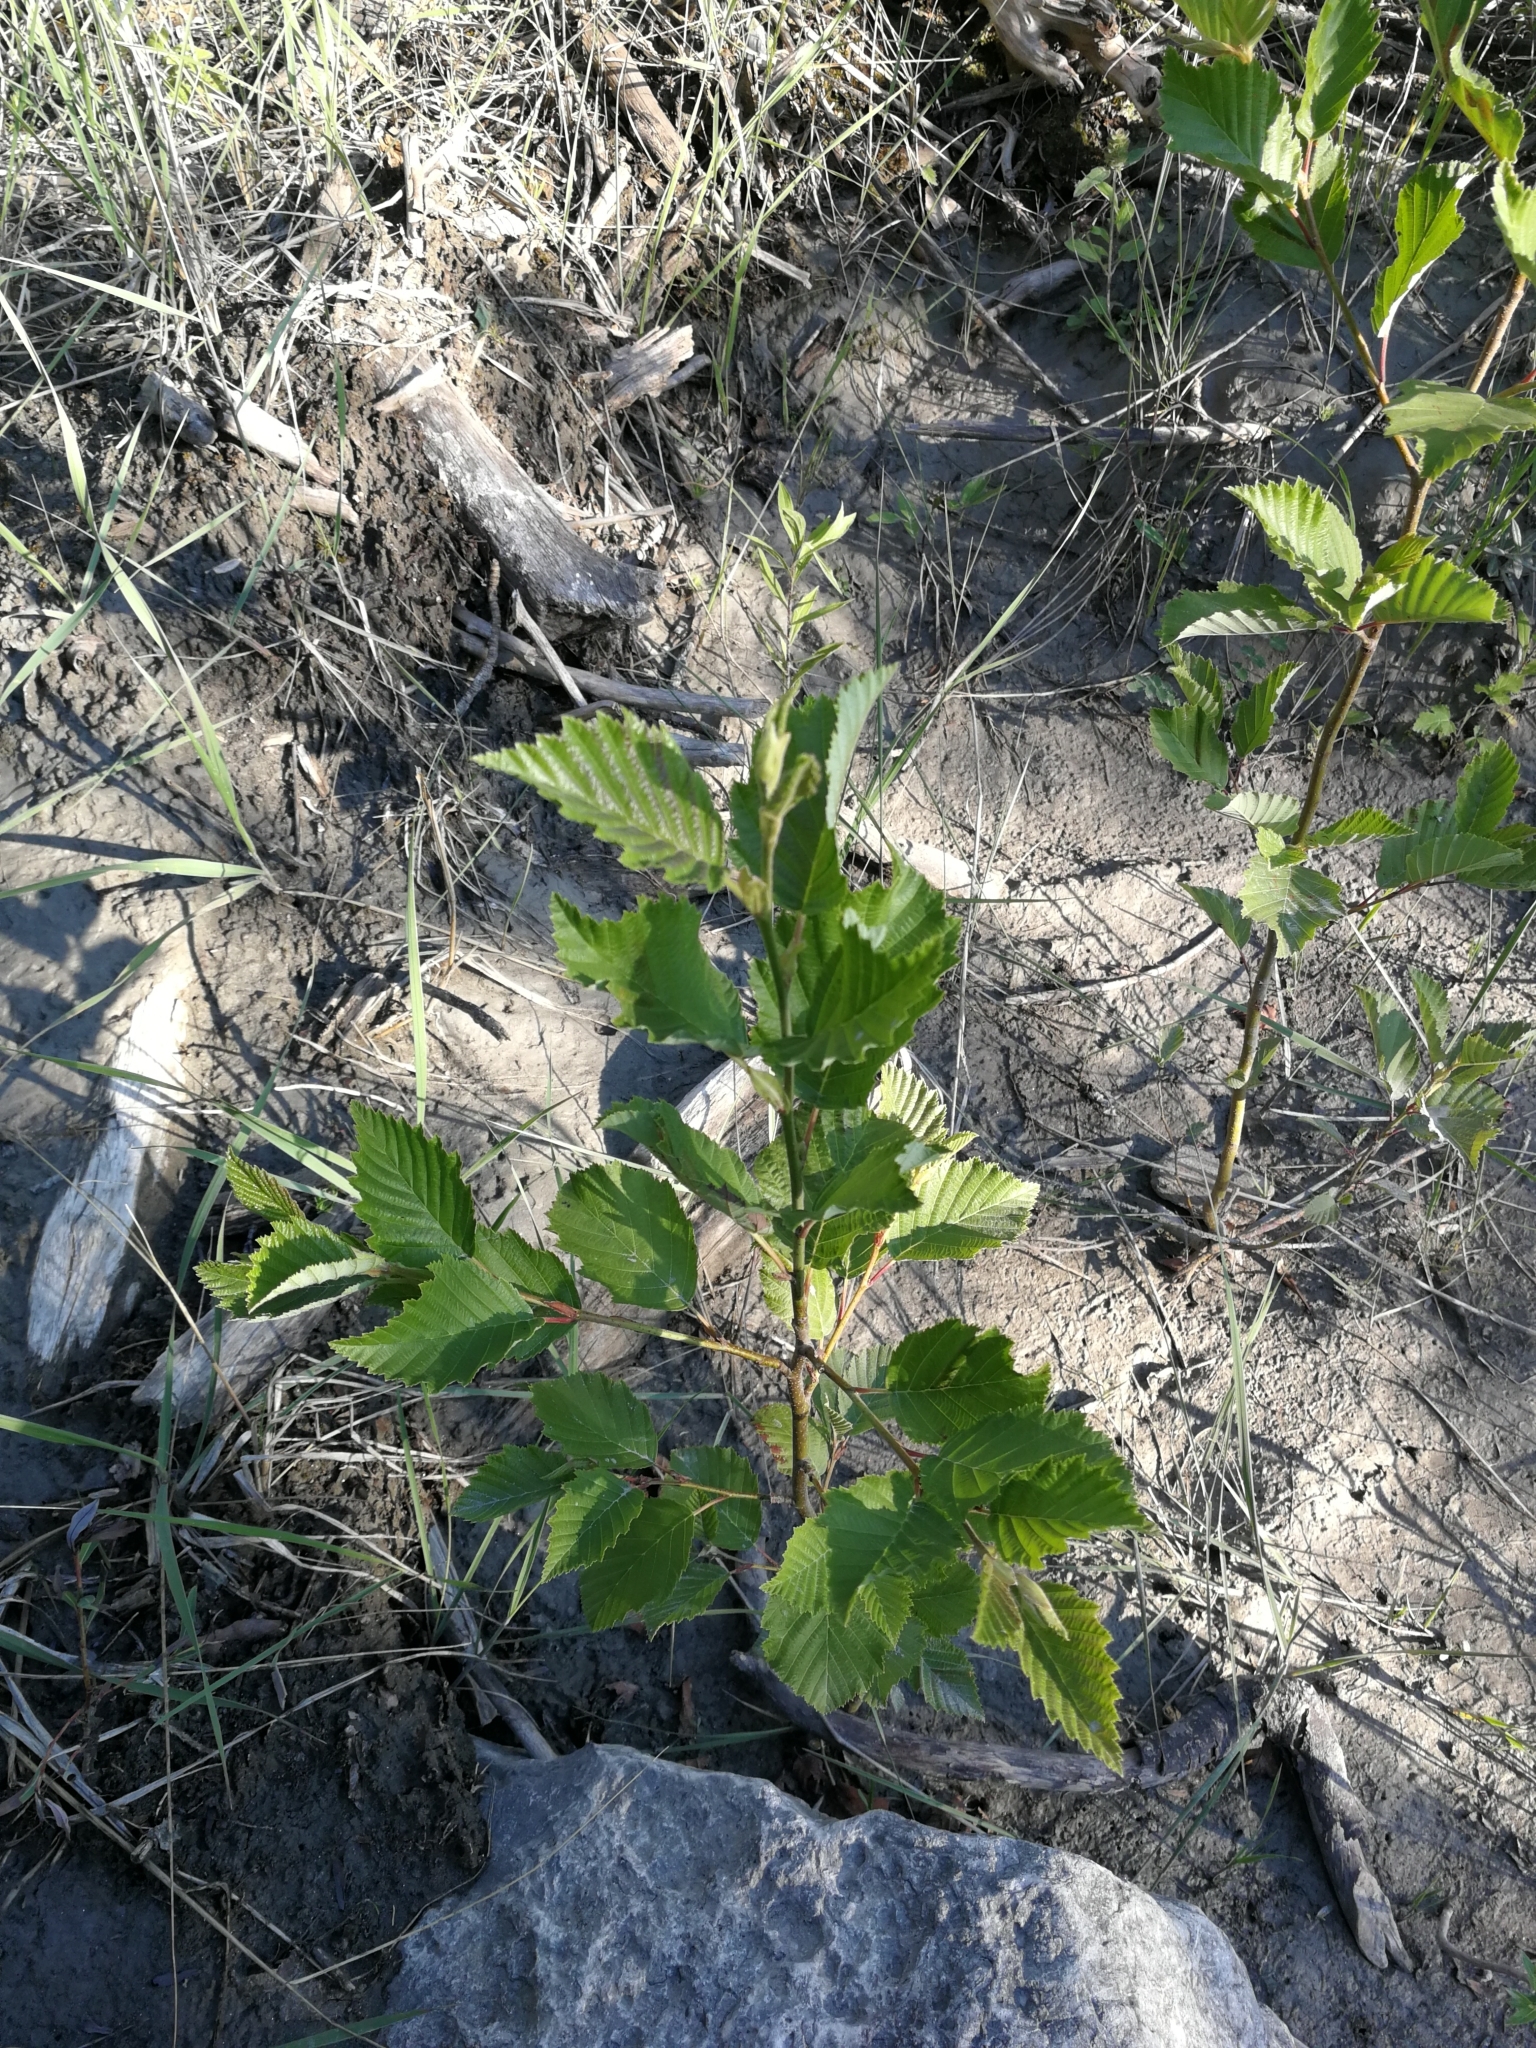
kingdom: Plantae
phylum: Tracheophyta
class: Magnoliopsida
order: Fagales
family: Betulaceae
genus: Alnus
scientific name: Alnus incana
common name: Grey alder
